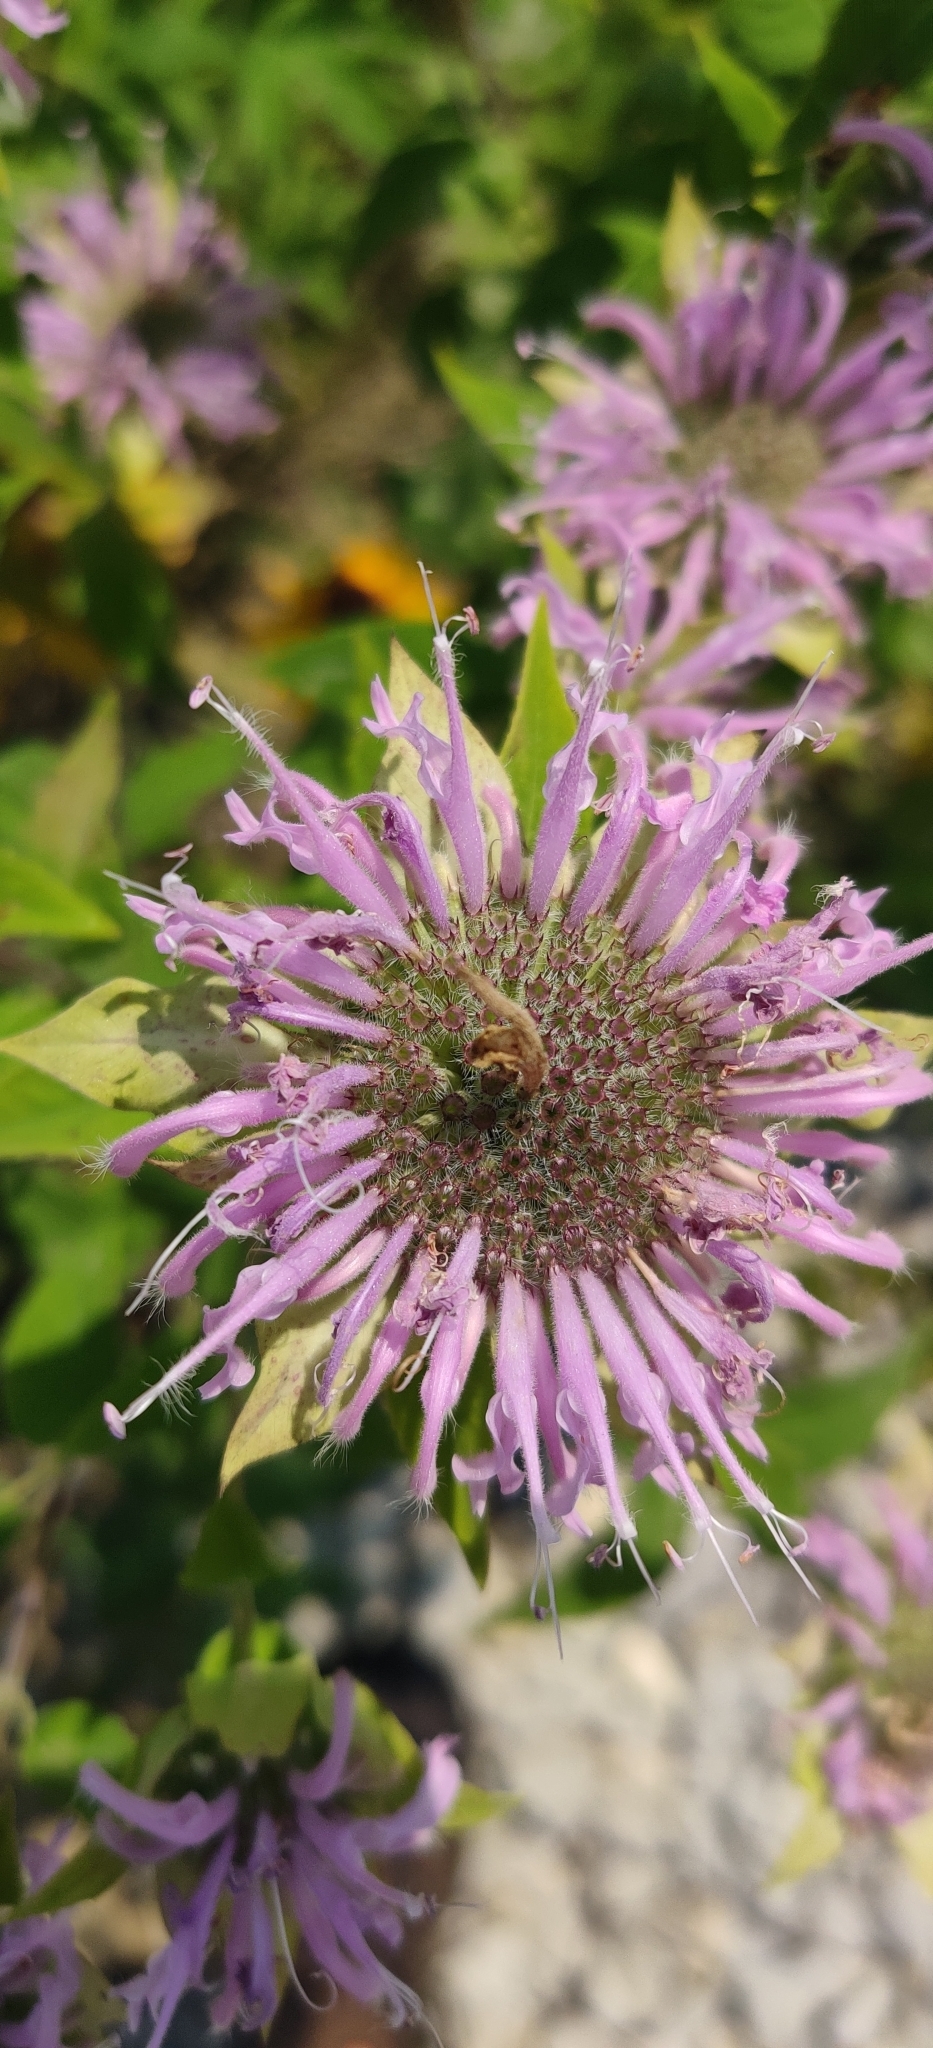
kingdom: Plantae
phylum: Tracheophyta
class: Magnoliopsida
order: Lamiales
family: Lamiaceae
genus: Monarda
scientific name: Monarda fistulosa
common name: Purple beebalm
